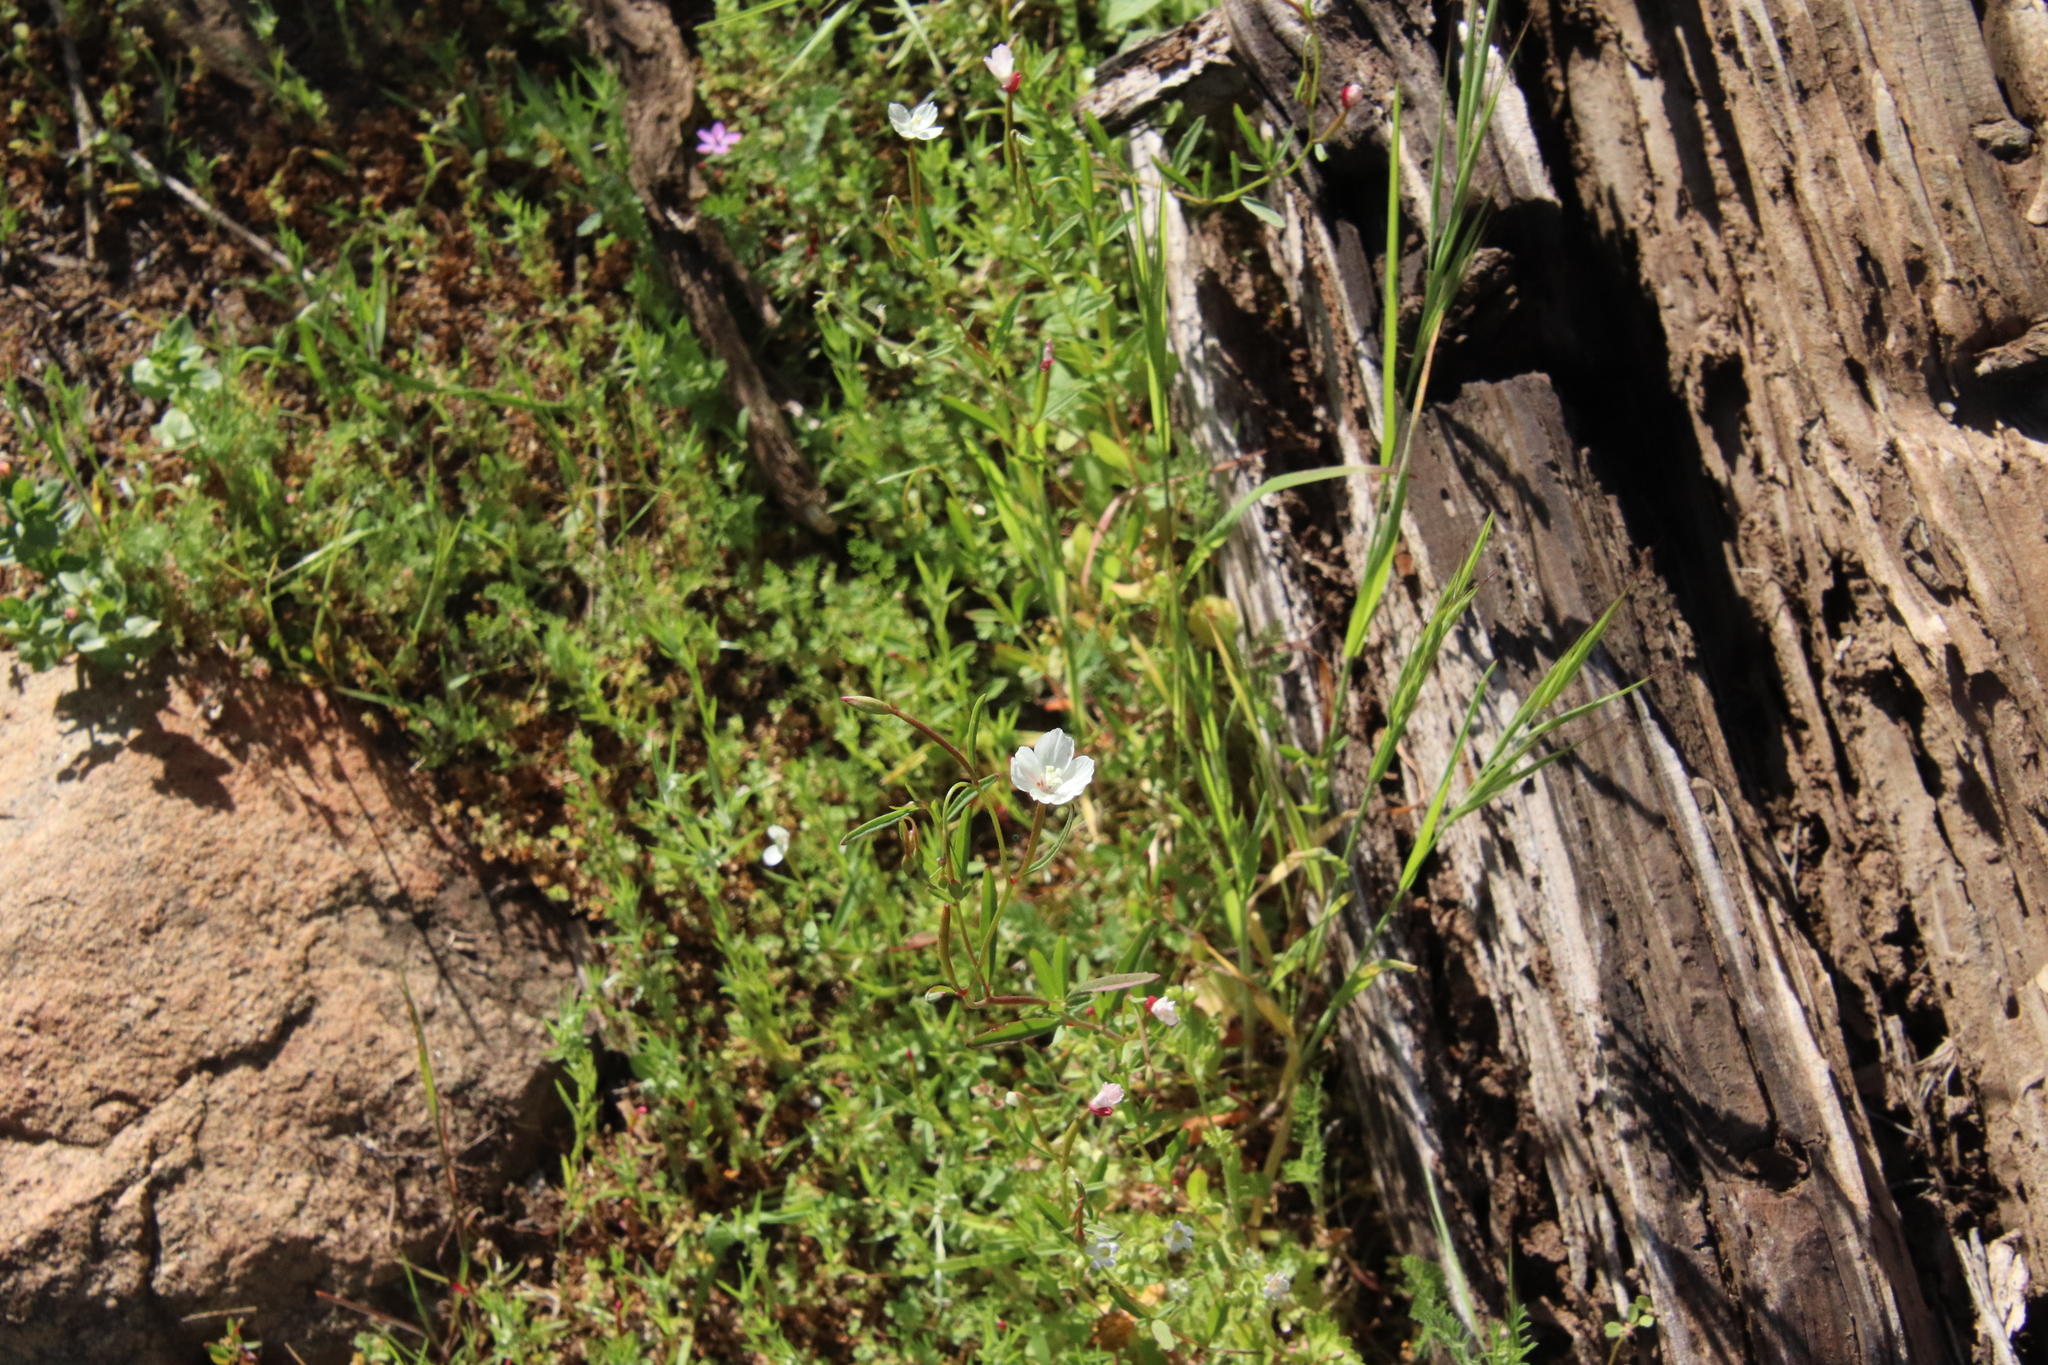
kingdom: Plantae
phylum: Tracheophyta
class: Magnoliopsida
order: Myrtales
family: Onagraceae
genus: Clarkia
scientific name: Clarkia epilobioides
